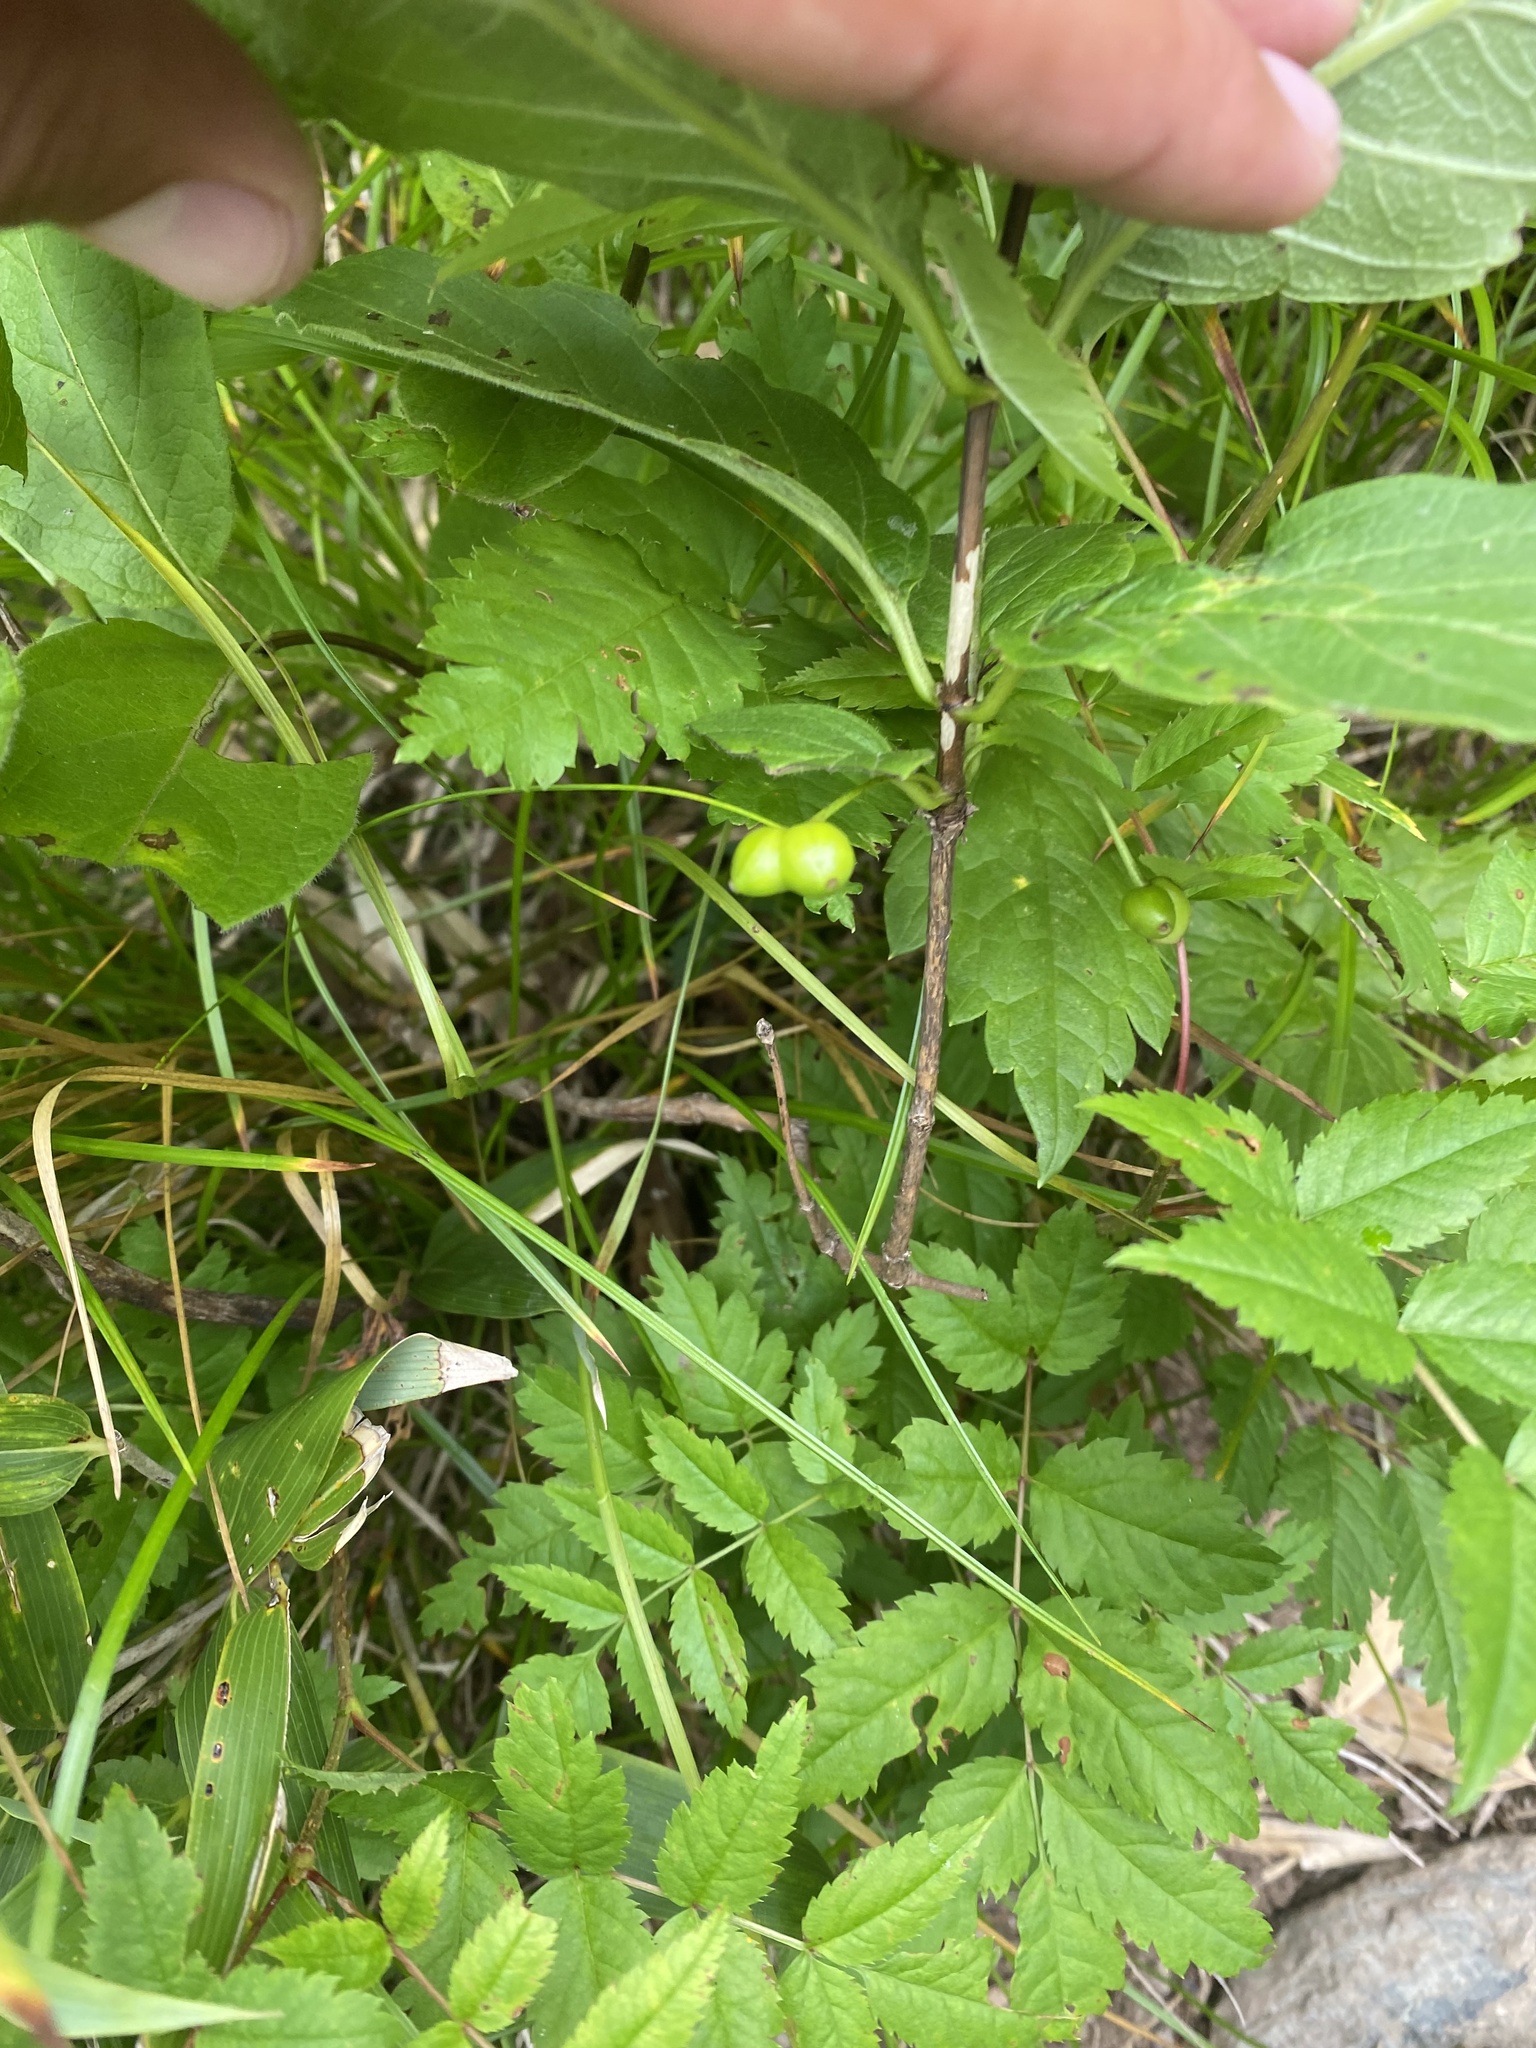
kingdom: Plantae
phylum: Tracheophyta
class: Magnoliopsida
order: Dipsacales
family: Caprifoliaceae
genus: Lonicera
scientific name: Lonicera glehnii
